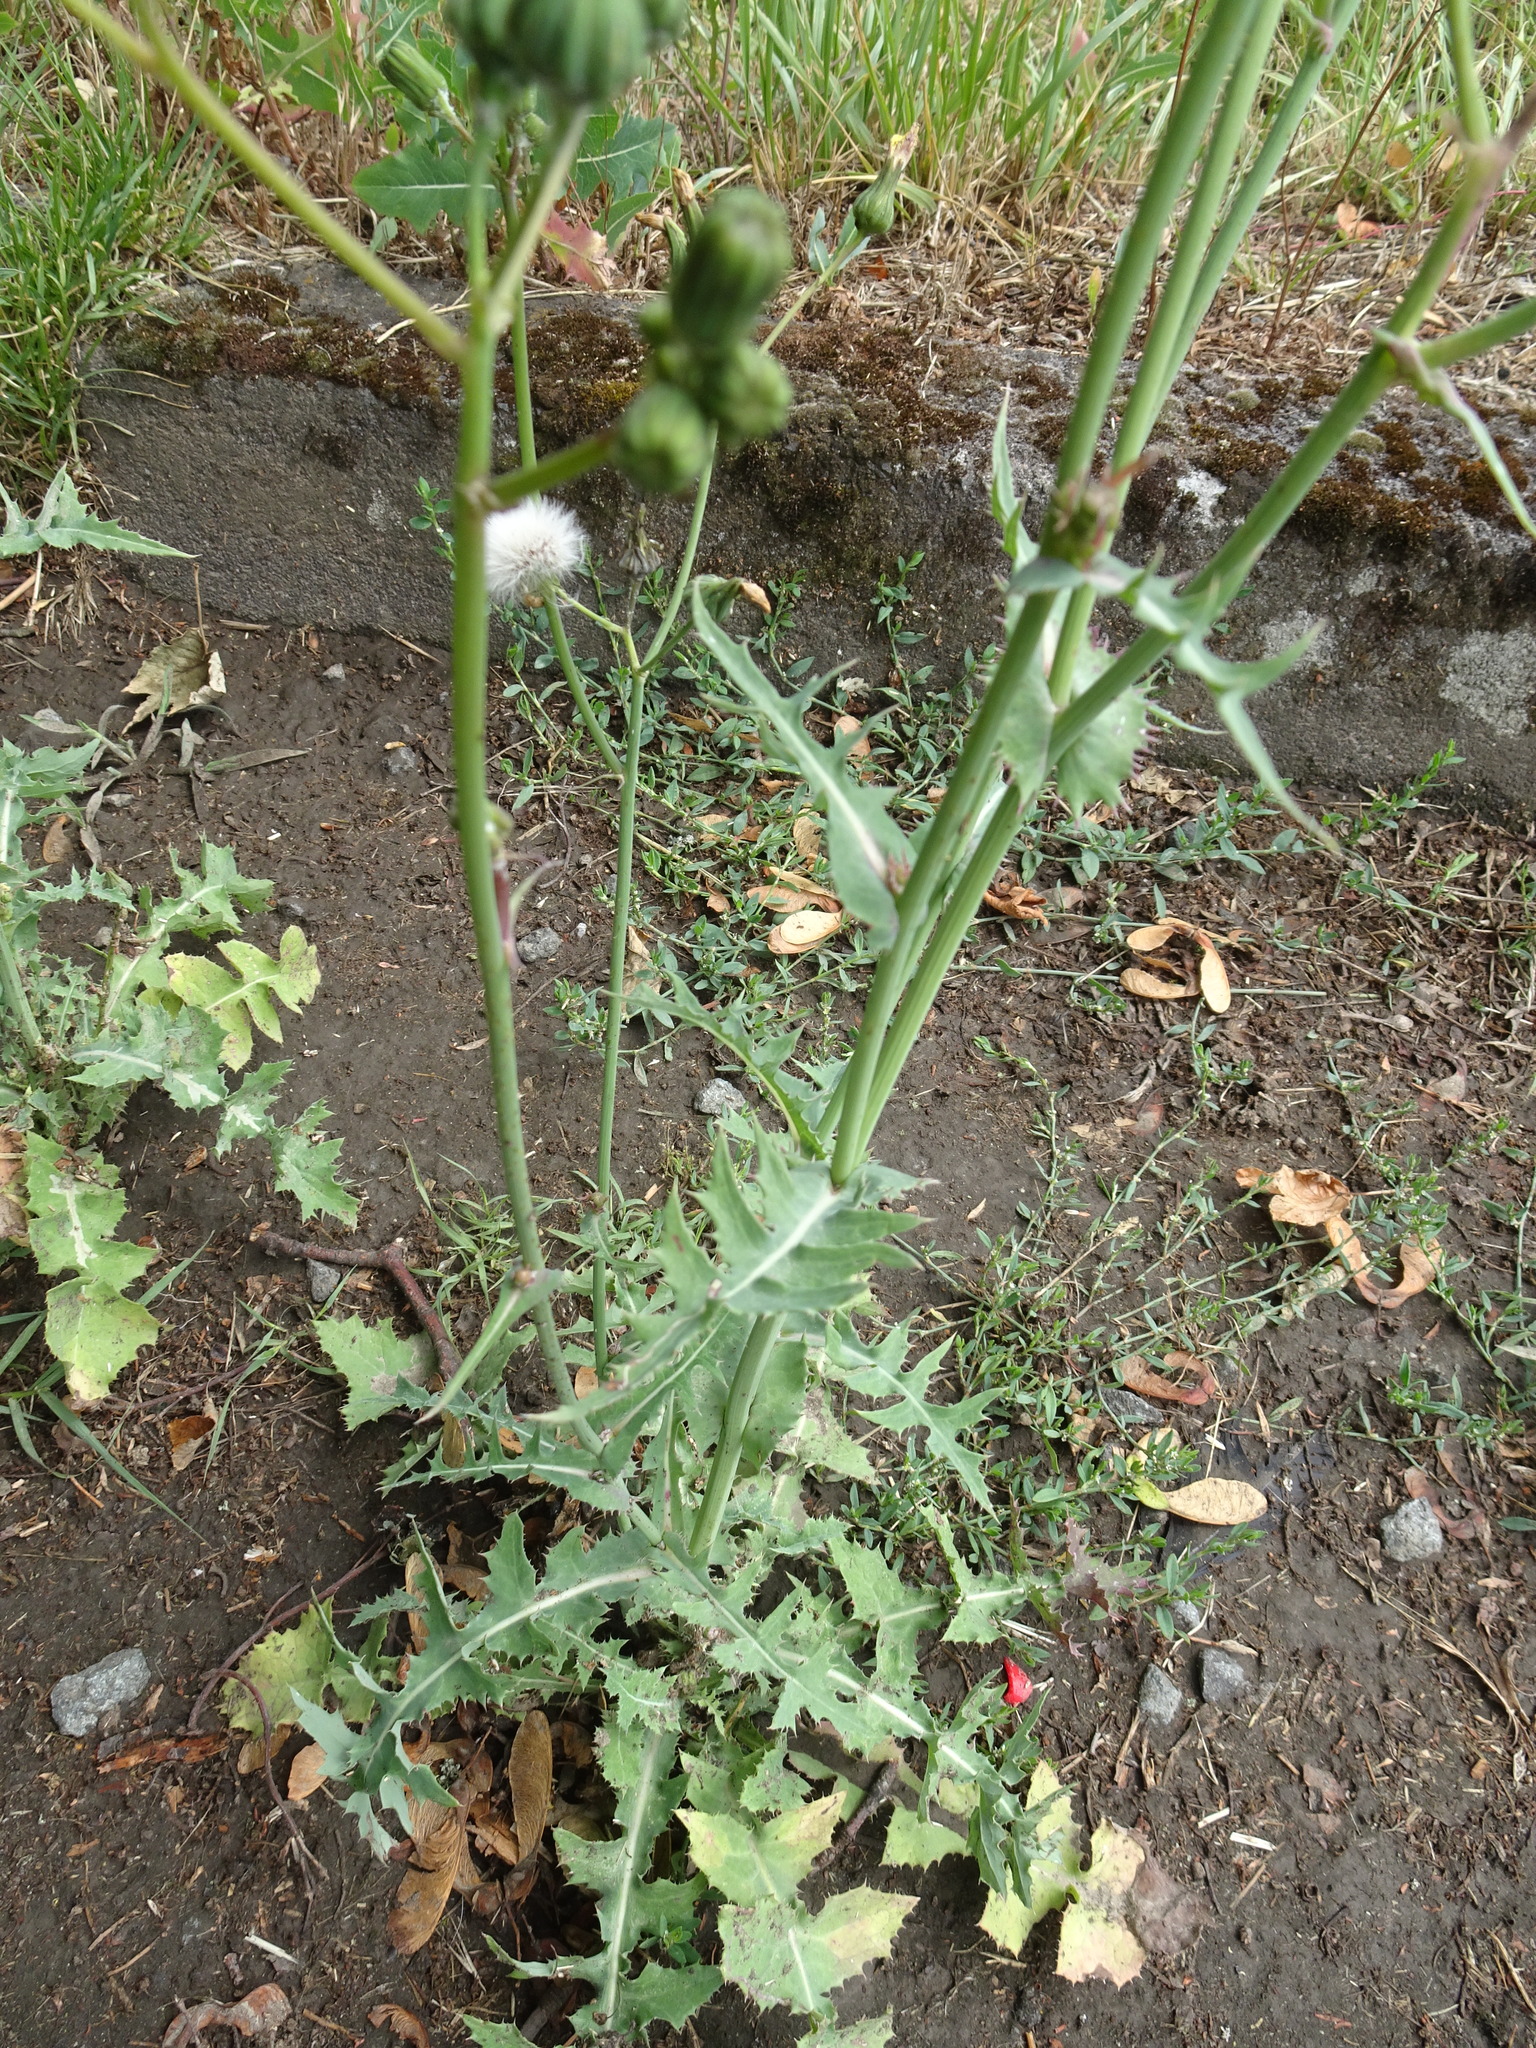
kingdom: Plantae
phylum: Tracheophyta
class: Magnoliopsida
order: Asterales
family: Asteraceae
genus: Sonchus
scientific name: Sonchus oleraceus
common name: Common sowthistle
